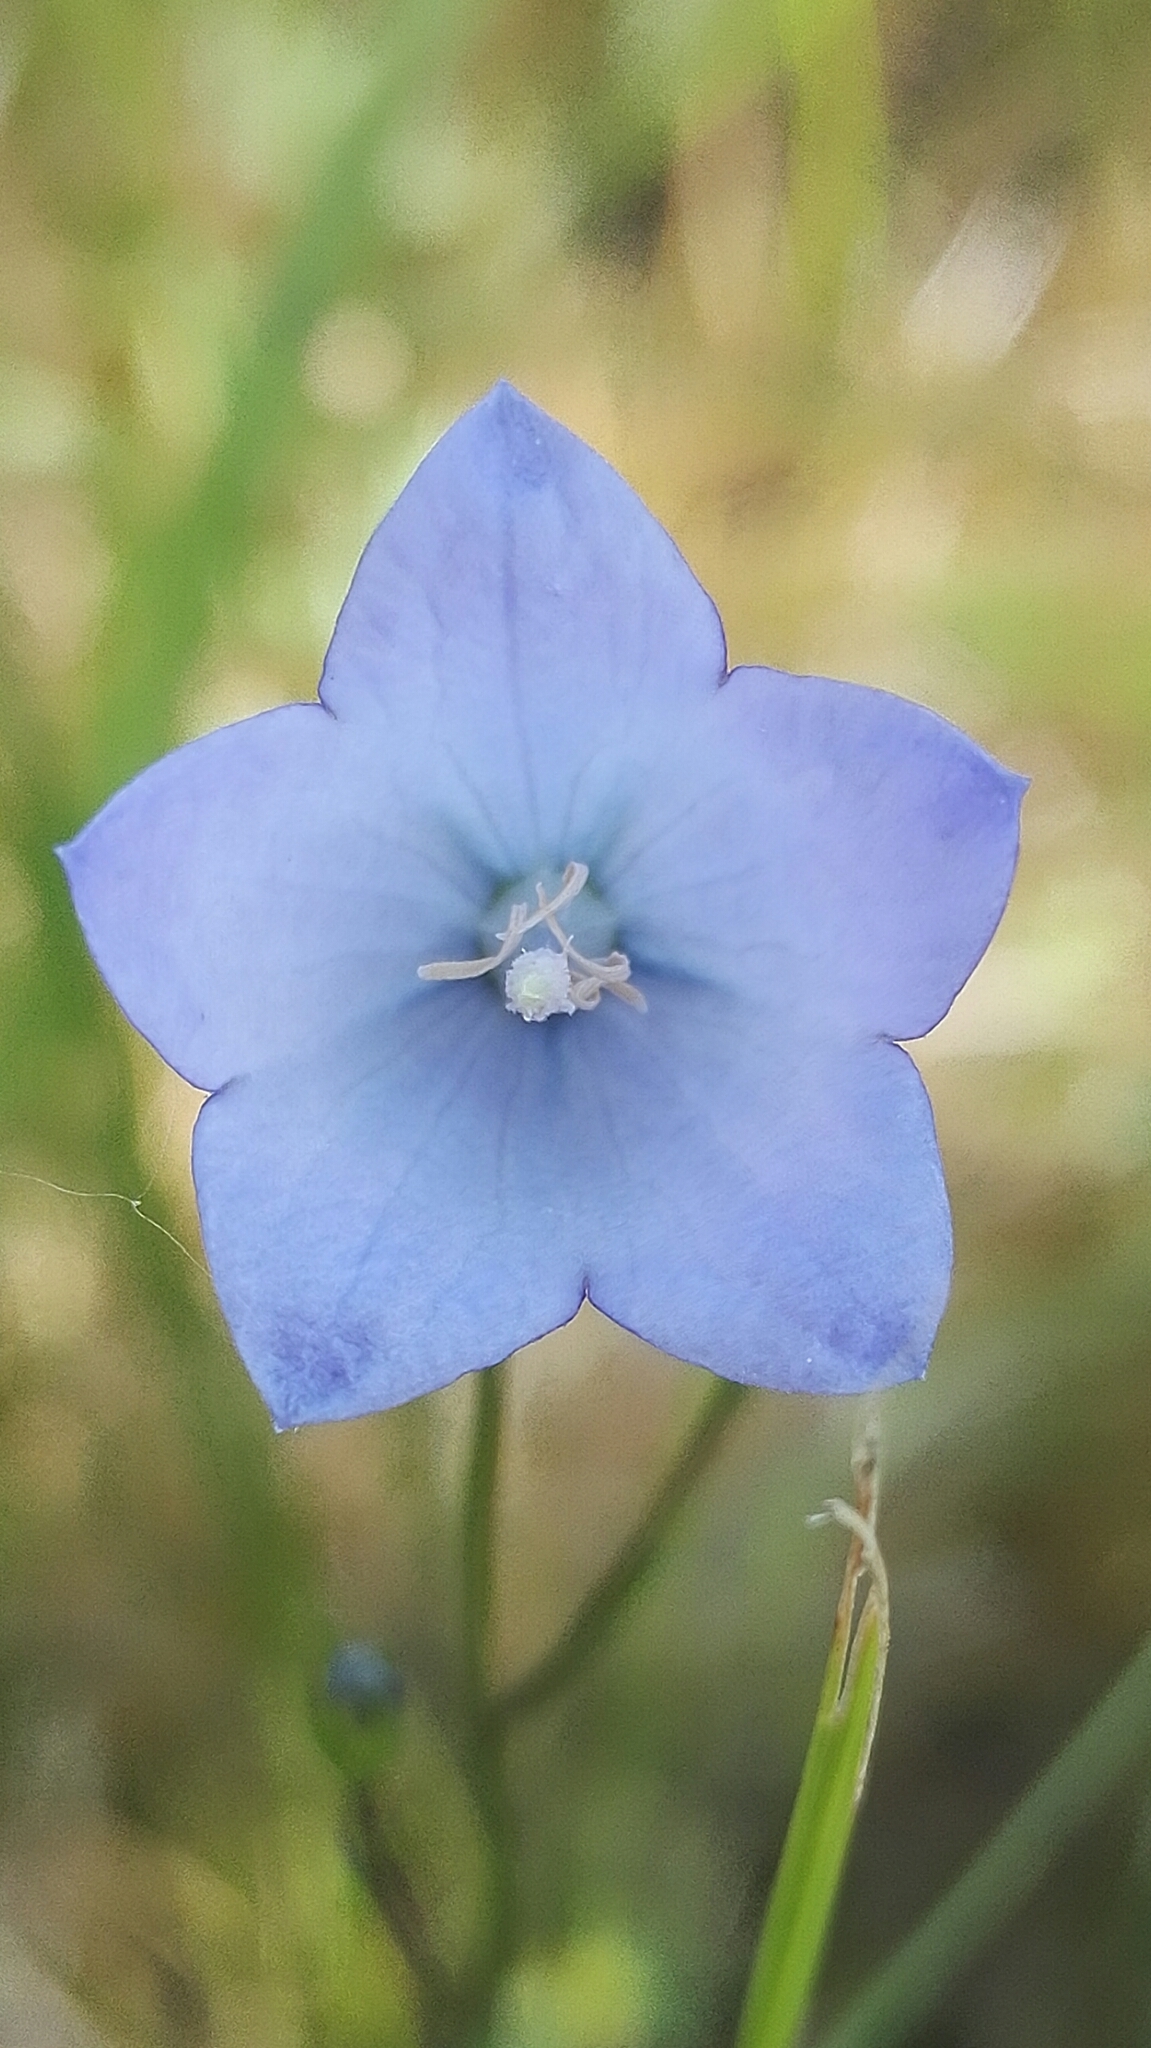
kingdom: Plantae
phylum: Tracheophyta
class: Magnoliopsida
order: Asterales
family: Campanulaceae
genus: Campanula
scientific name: Campanula rotundifolia
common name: Harebell
